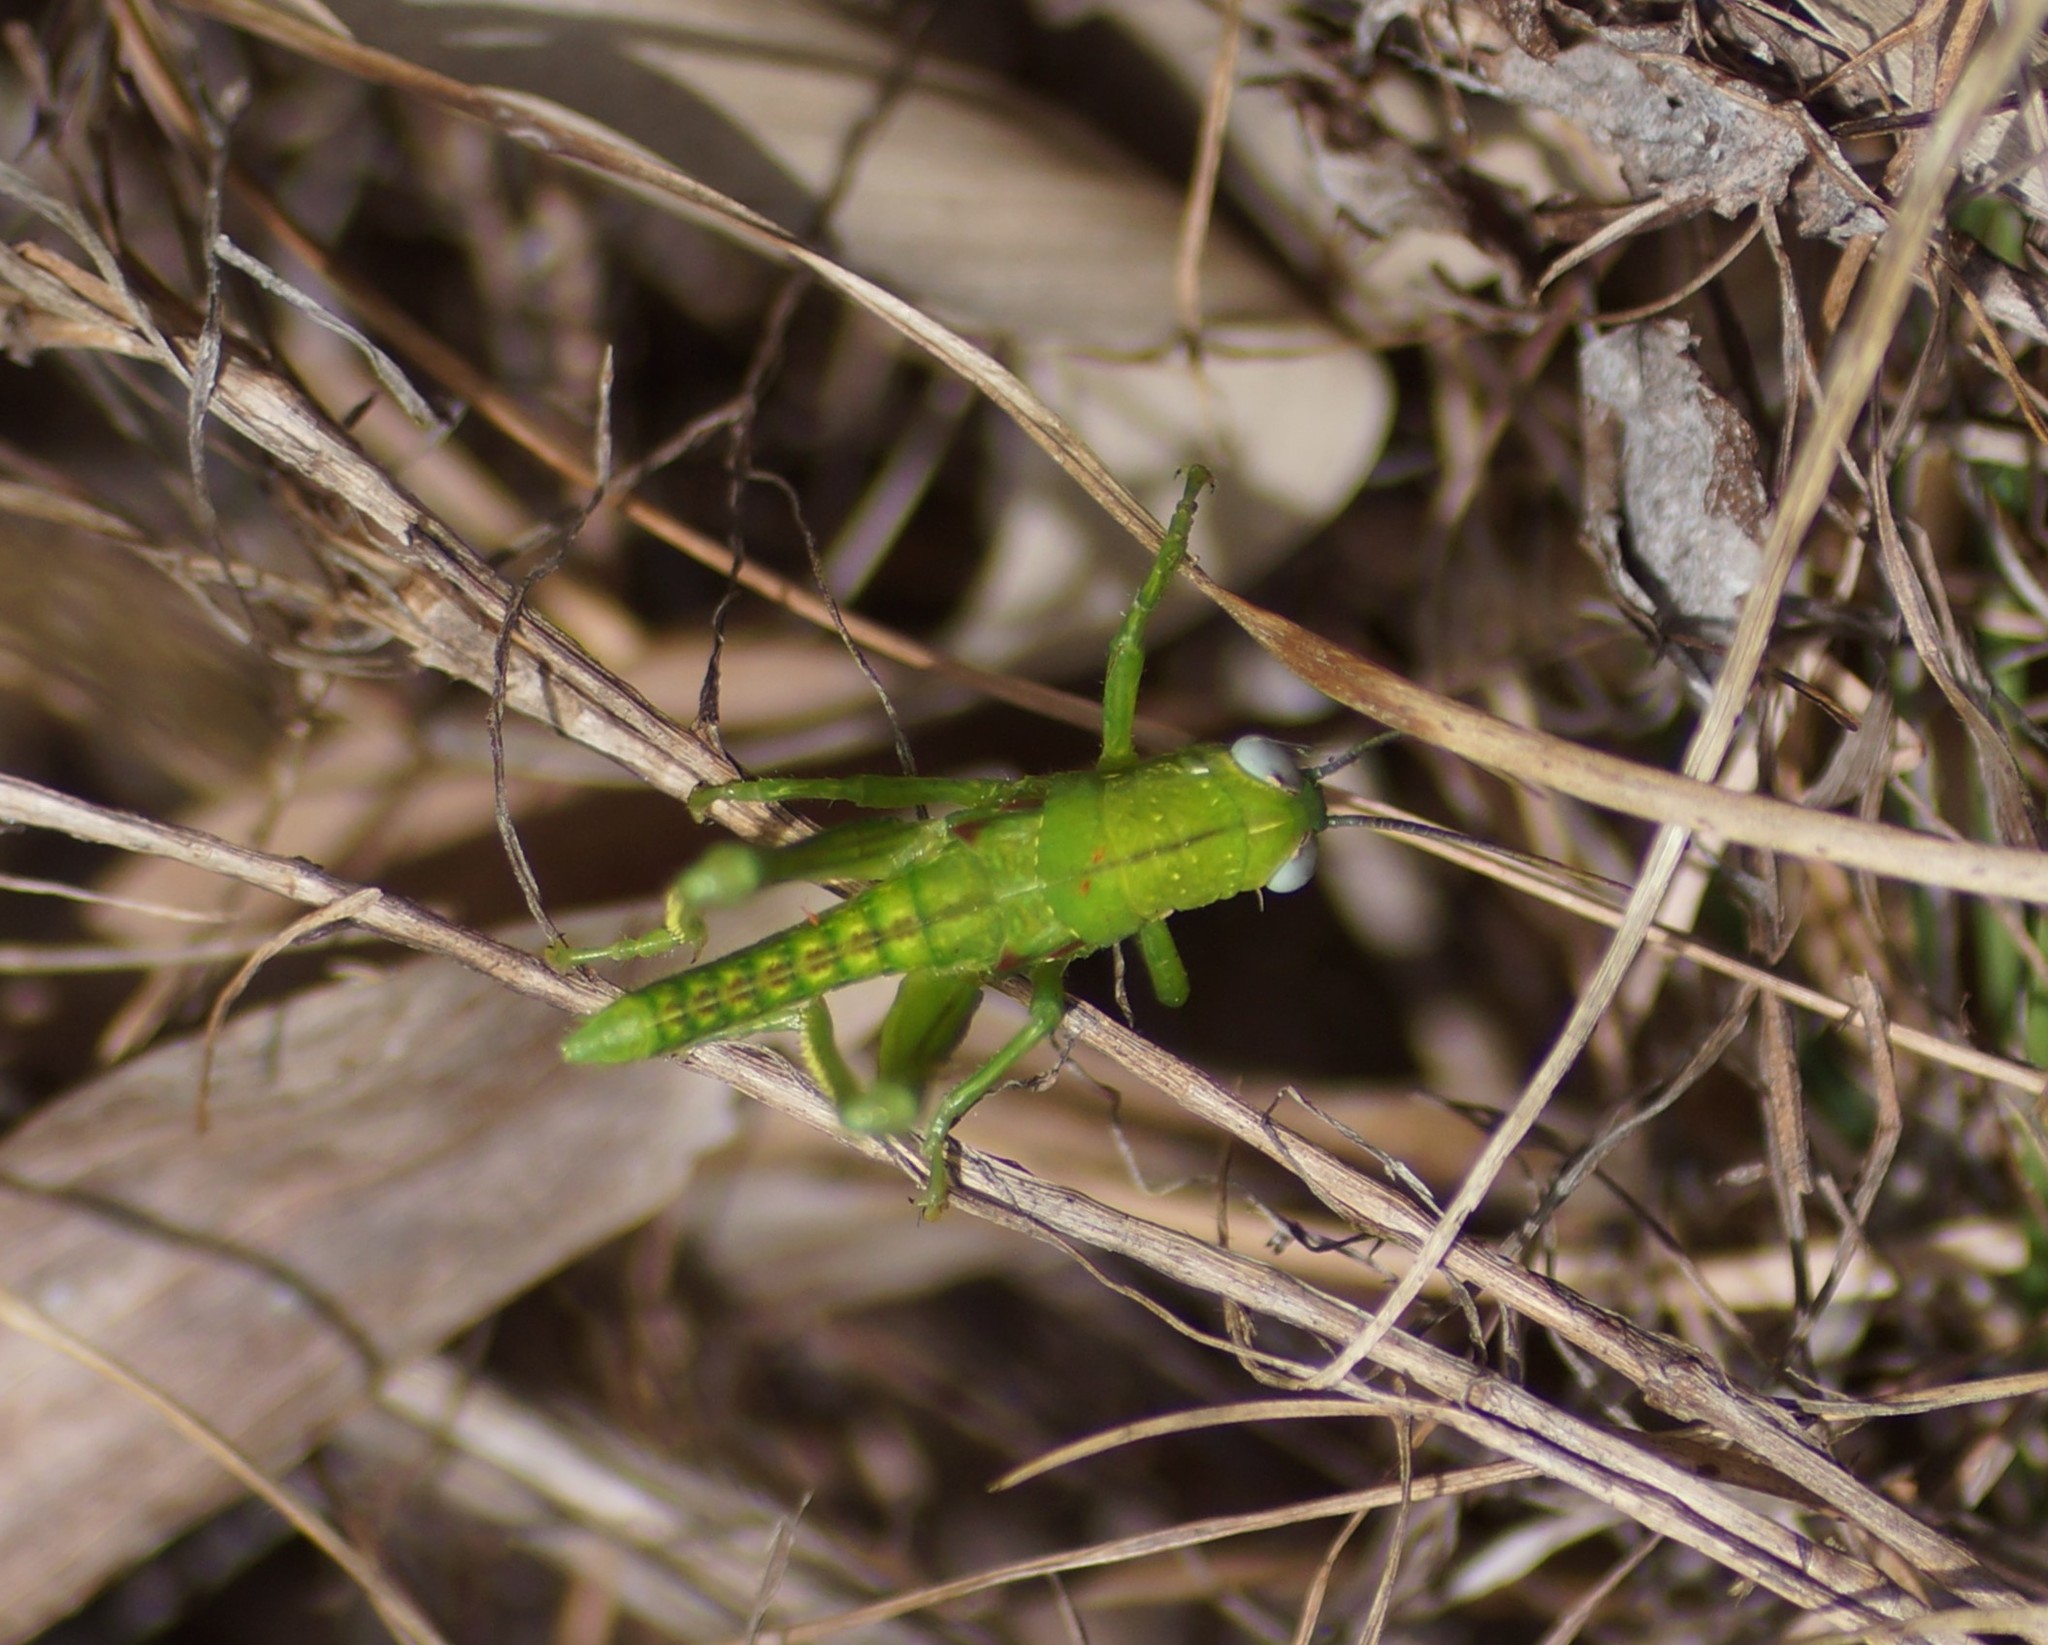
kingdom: Animalia
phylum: Arthropoda
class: Insecta
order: Orthoptera
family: Acrididae
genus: Valanga
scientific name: Valanga irregularis
